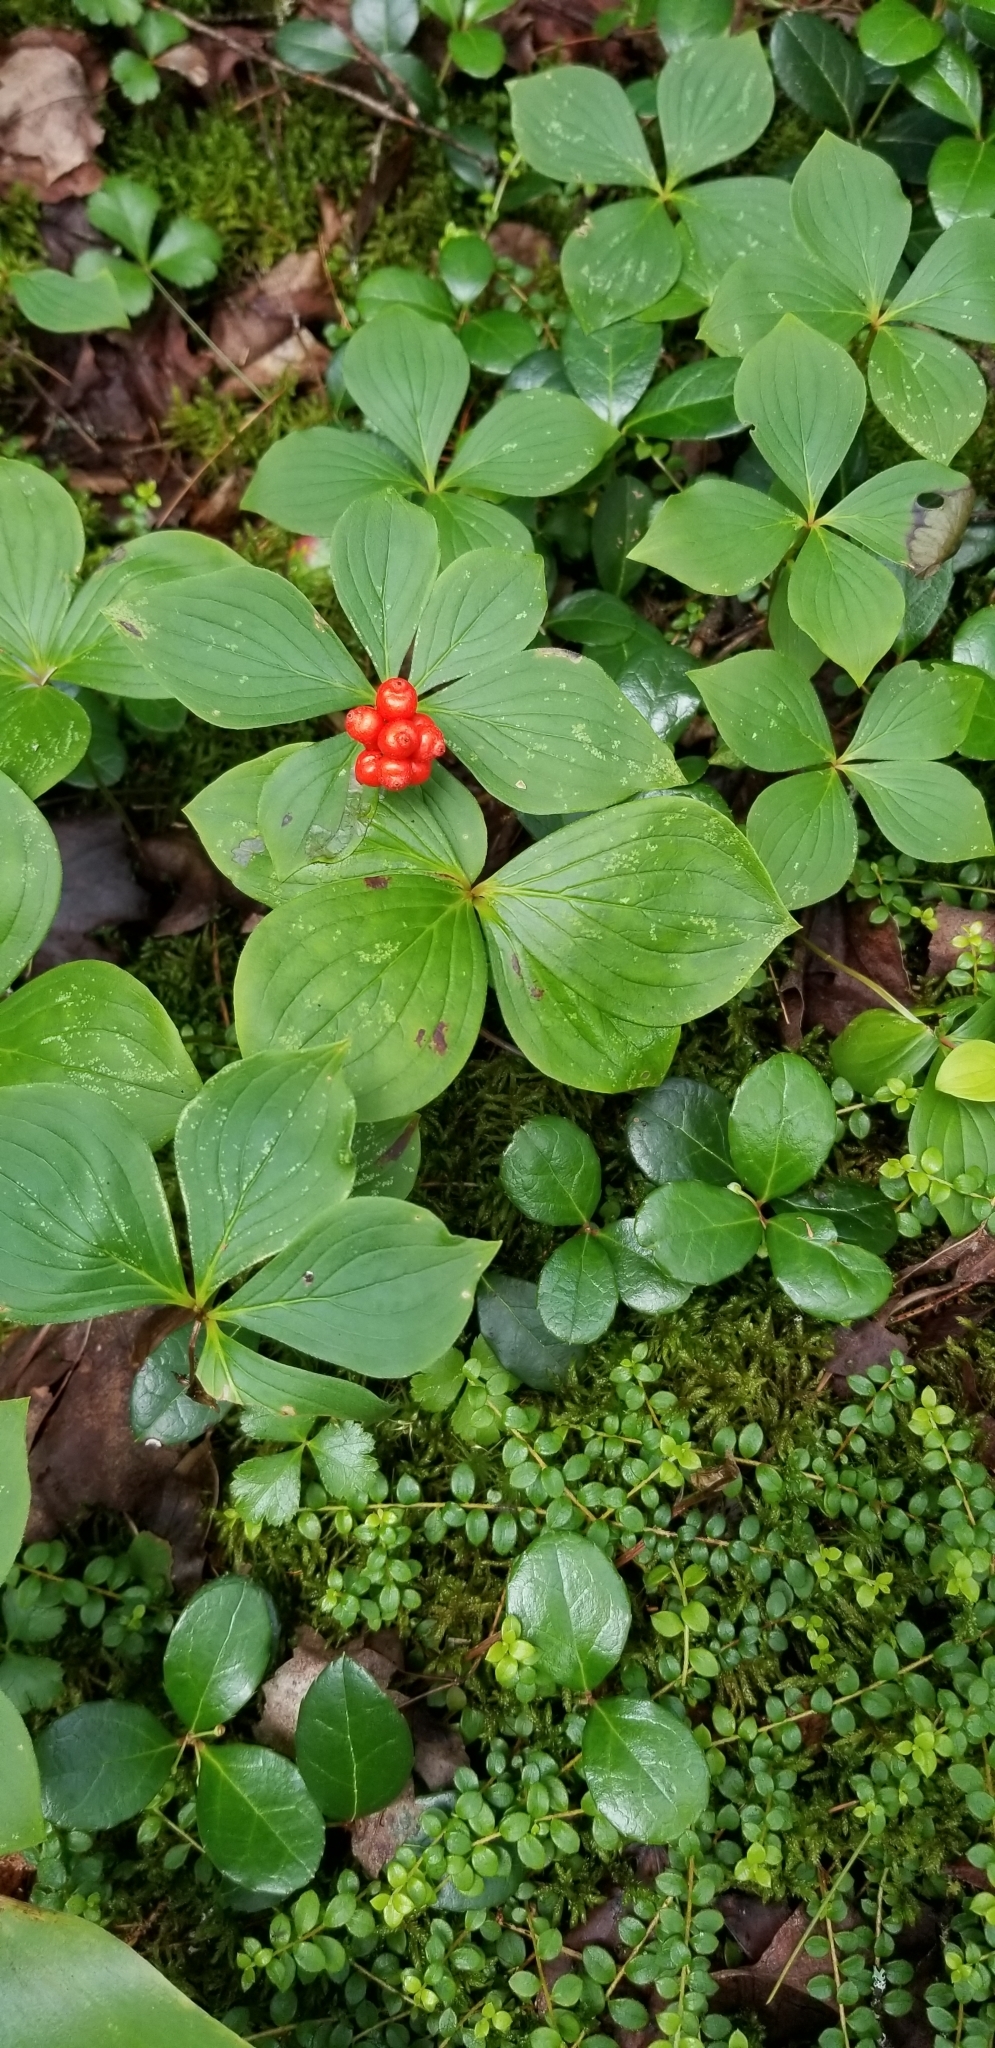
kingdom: Plantae
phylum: Tracheophyta
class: Magnoliopsida
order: Cornales
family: Cornaceae
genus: Cornus
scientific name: Cornus canadensis
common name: Creeping dogwood
